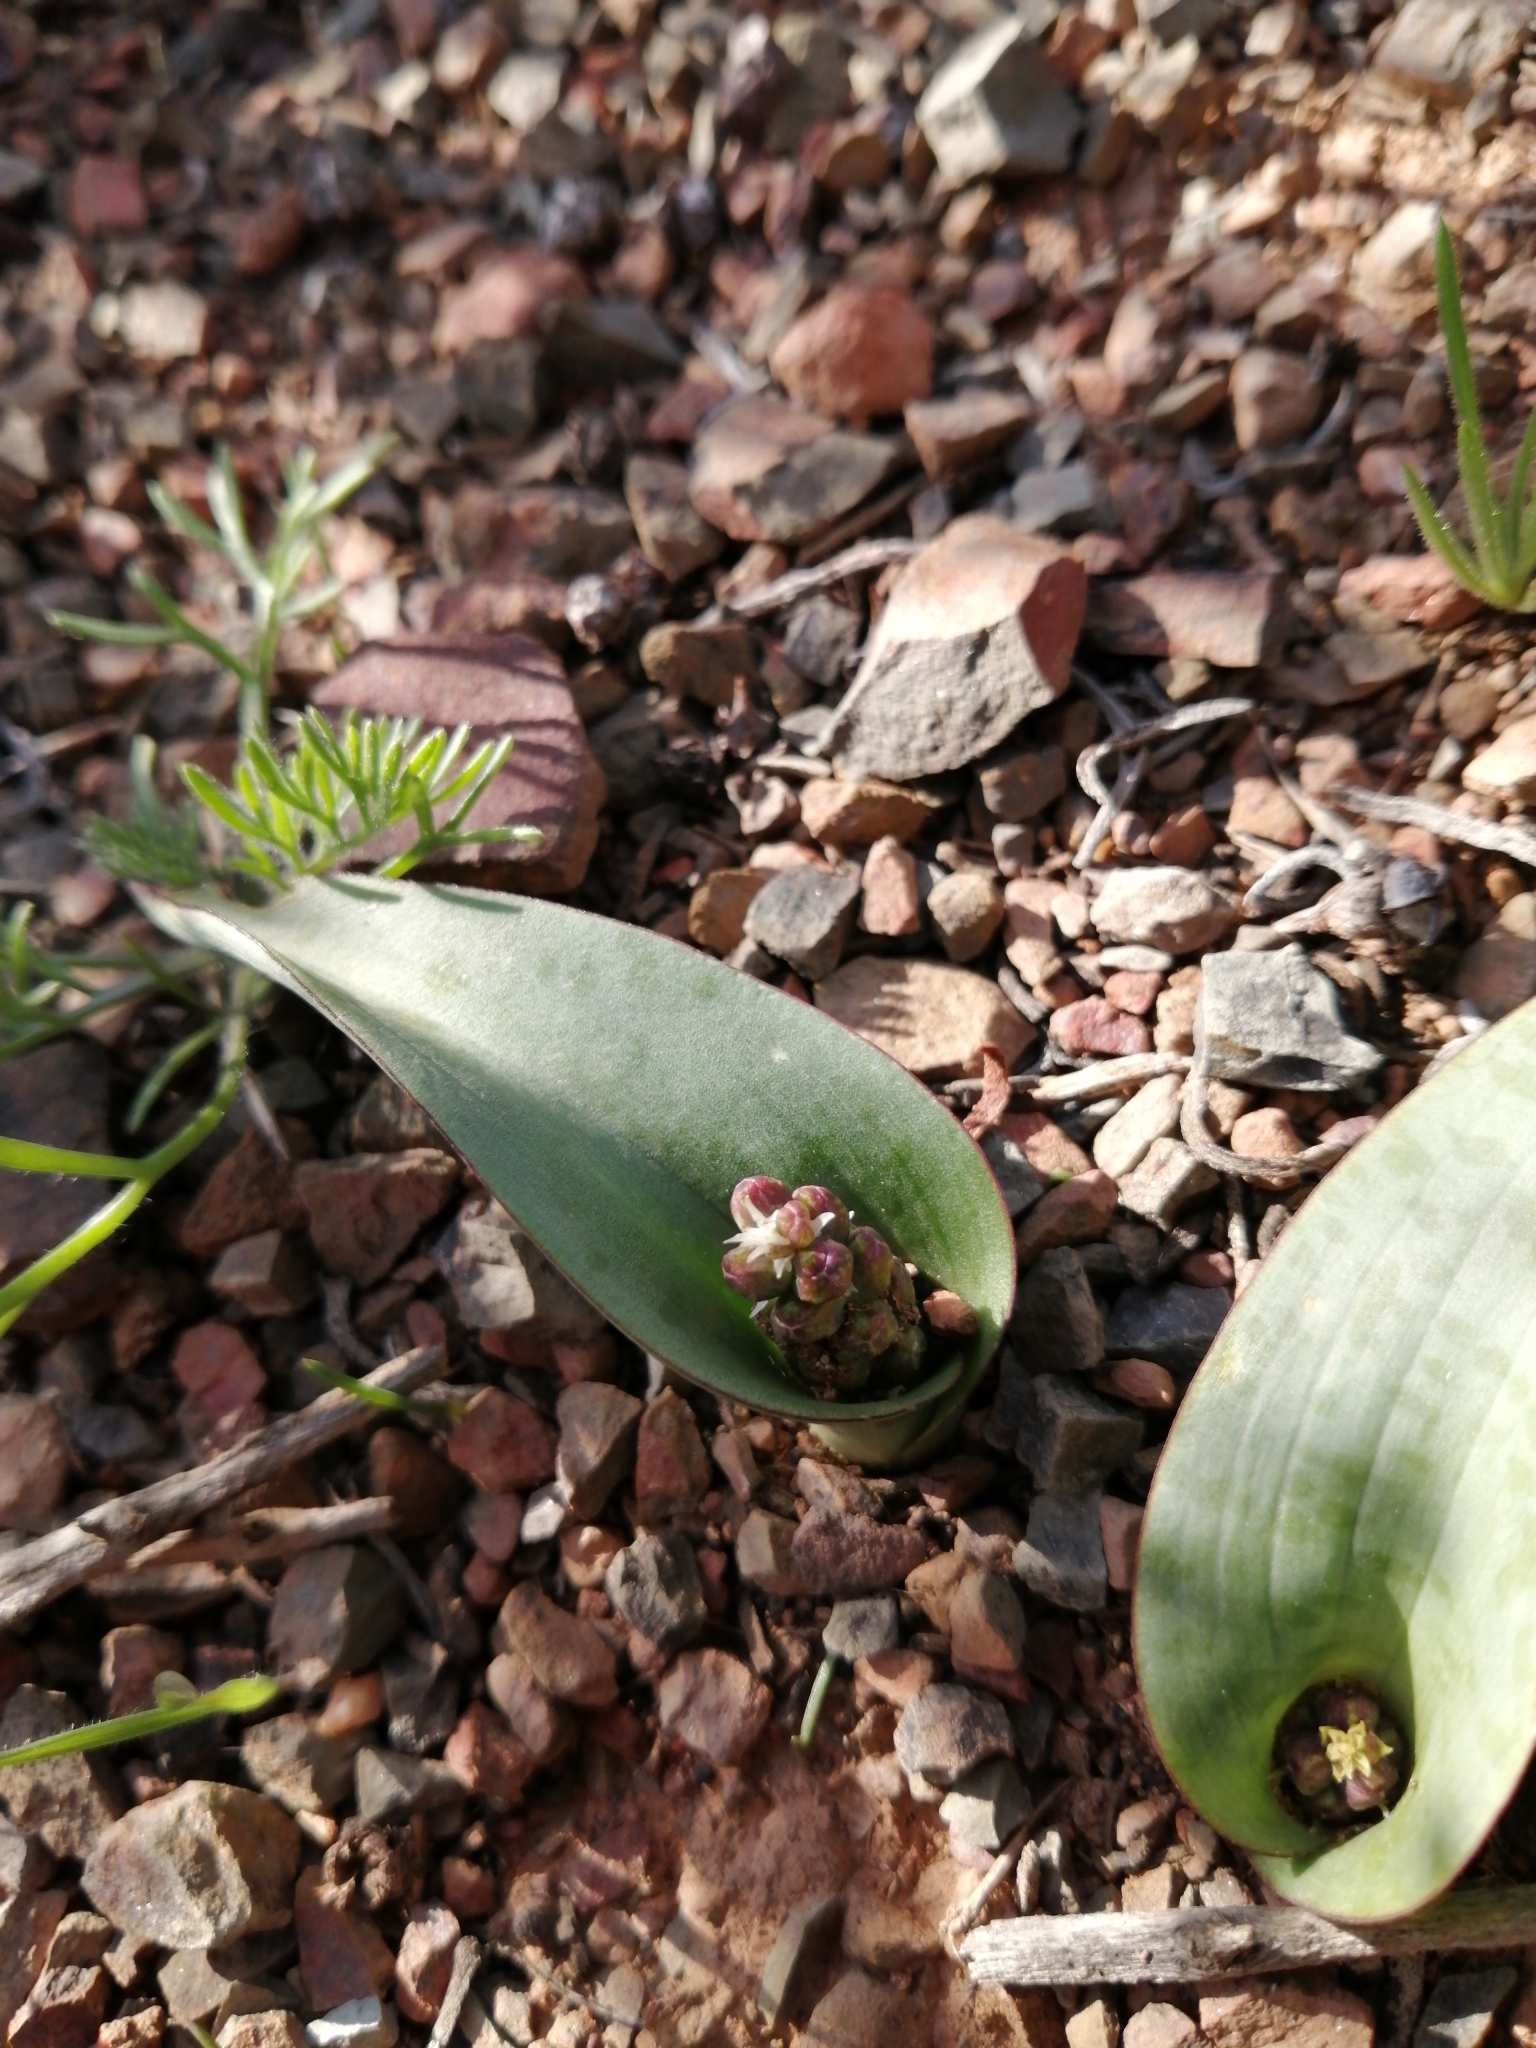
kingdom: Plantae
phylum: Tracheophyta
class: Liliopsida
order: Asparagales
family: Asparagaceae
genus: Lachenalia
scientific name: Lachenalia aurioliae
